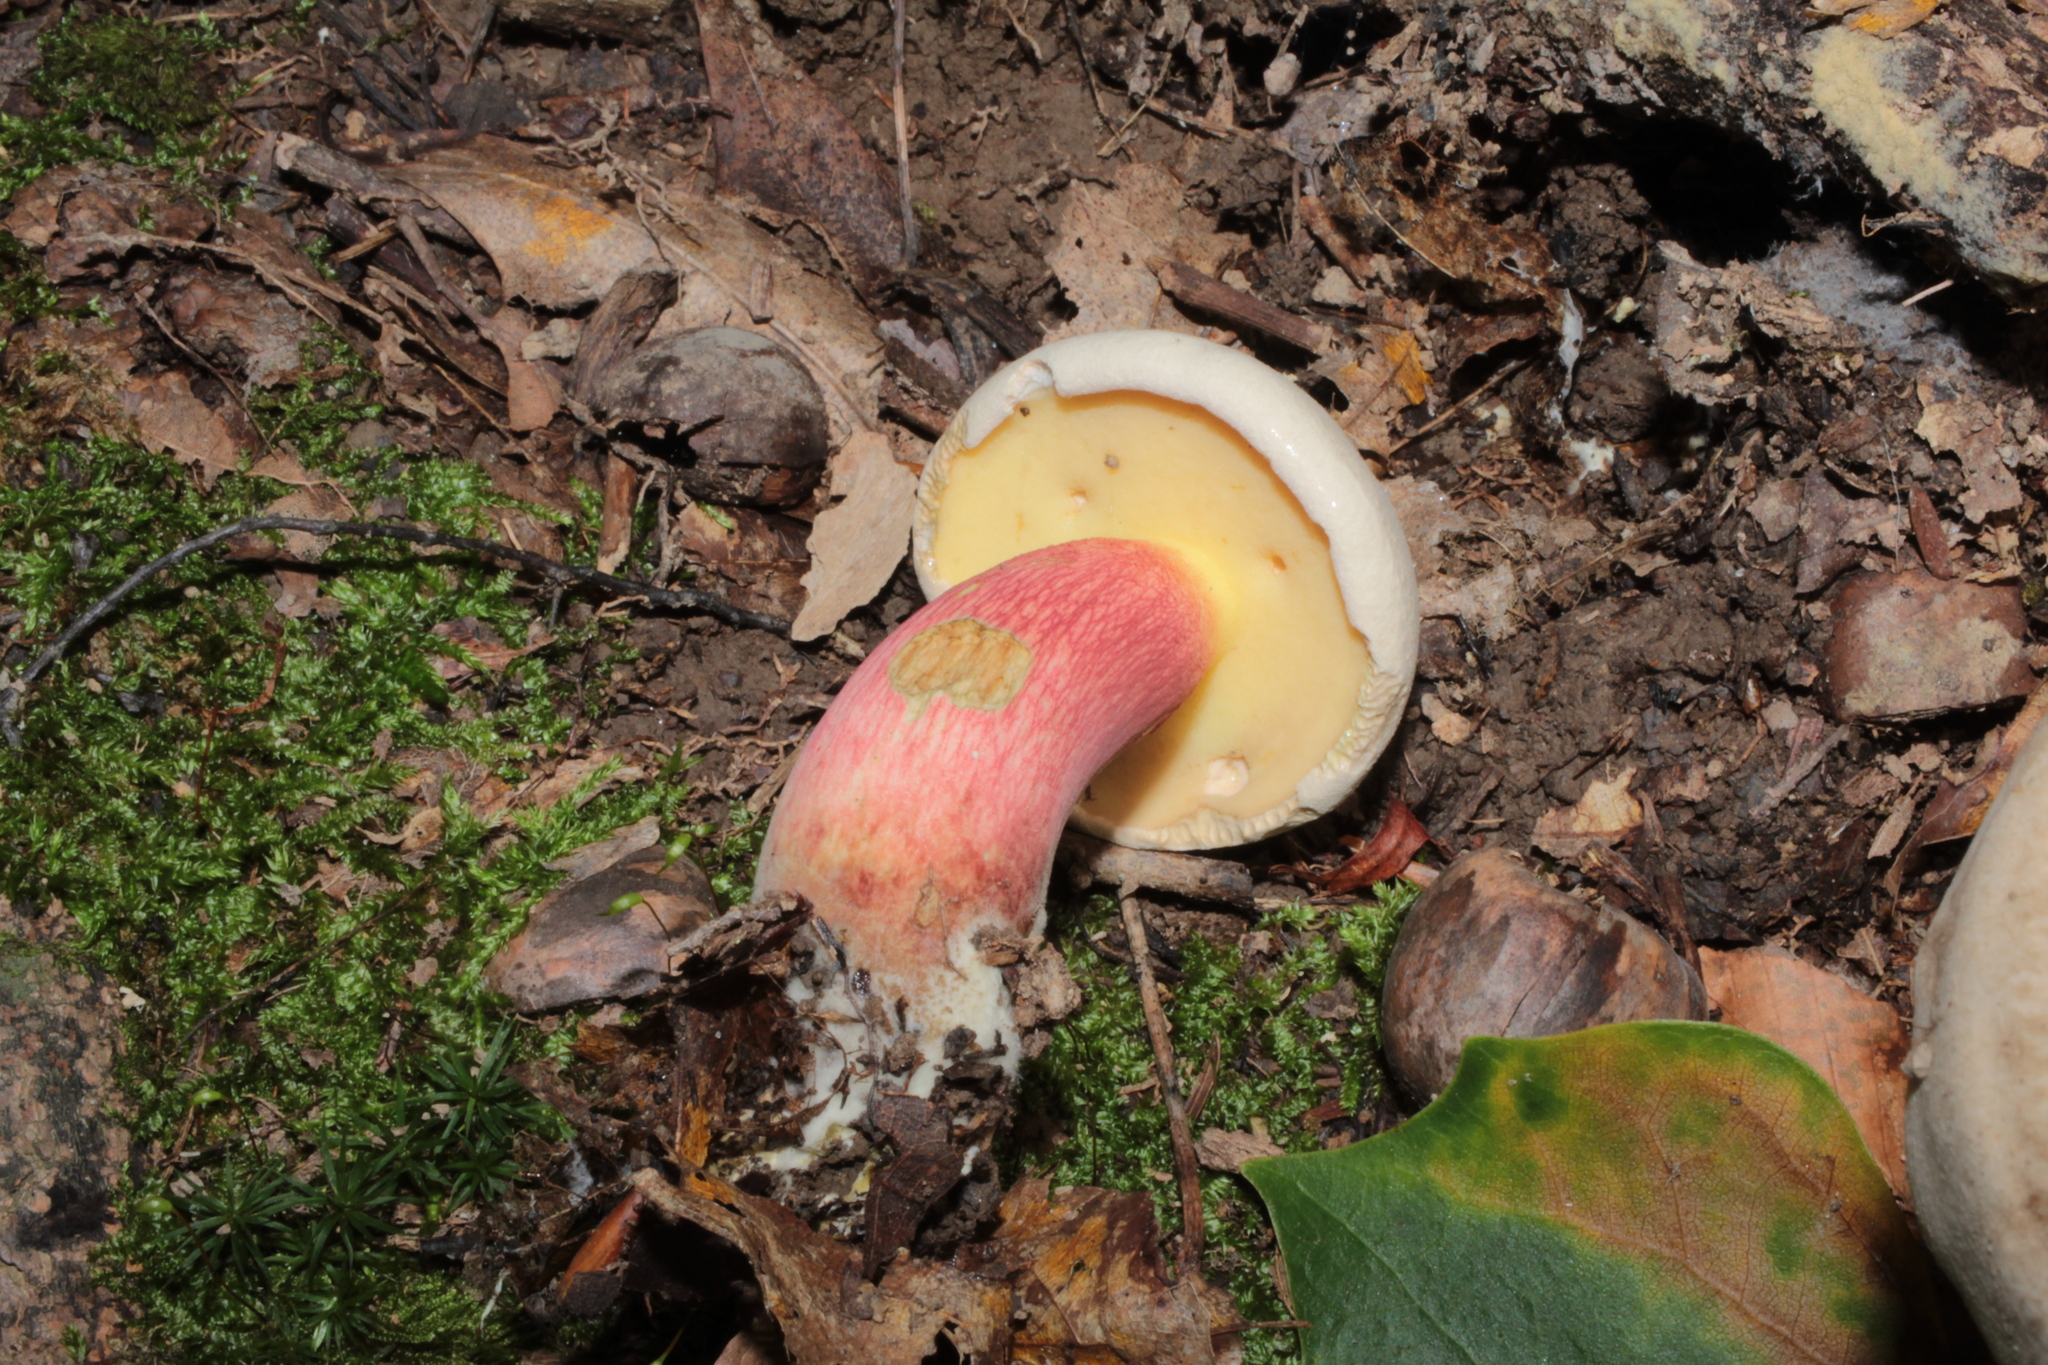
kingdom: Fungi
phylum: Basidiomycota
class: Agaricomycetes
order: Boletales
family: Boletaceae
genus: Caloboletus
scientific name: Caloboletus inedulis
